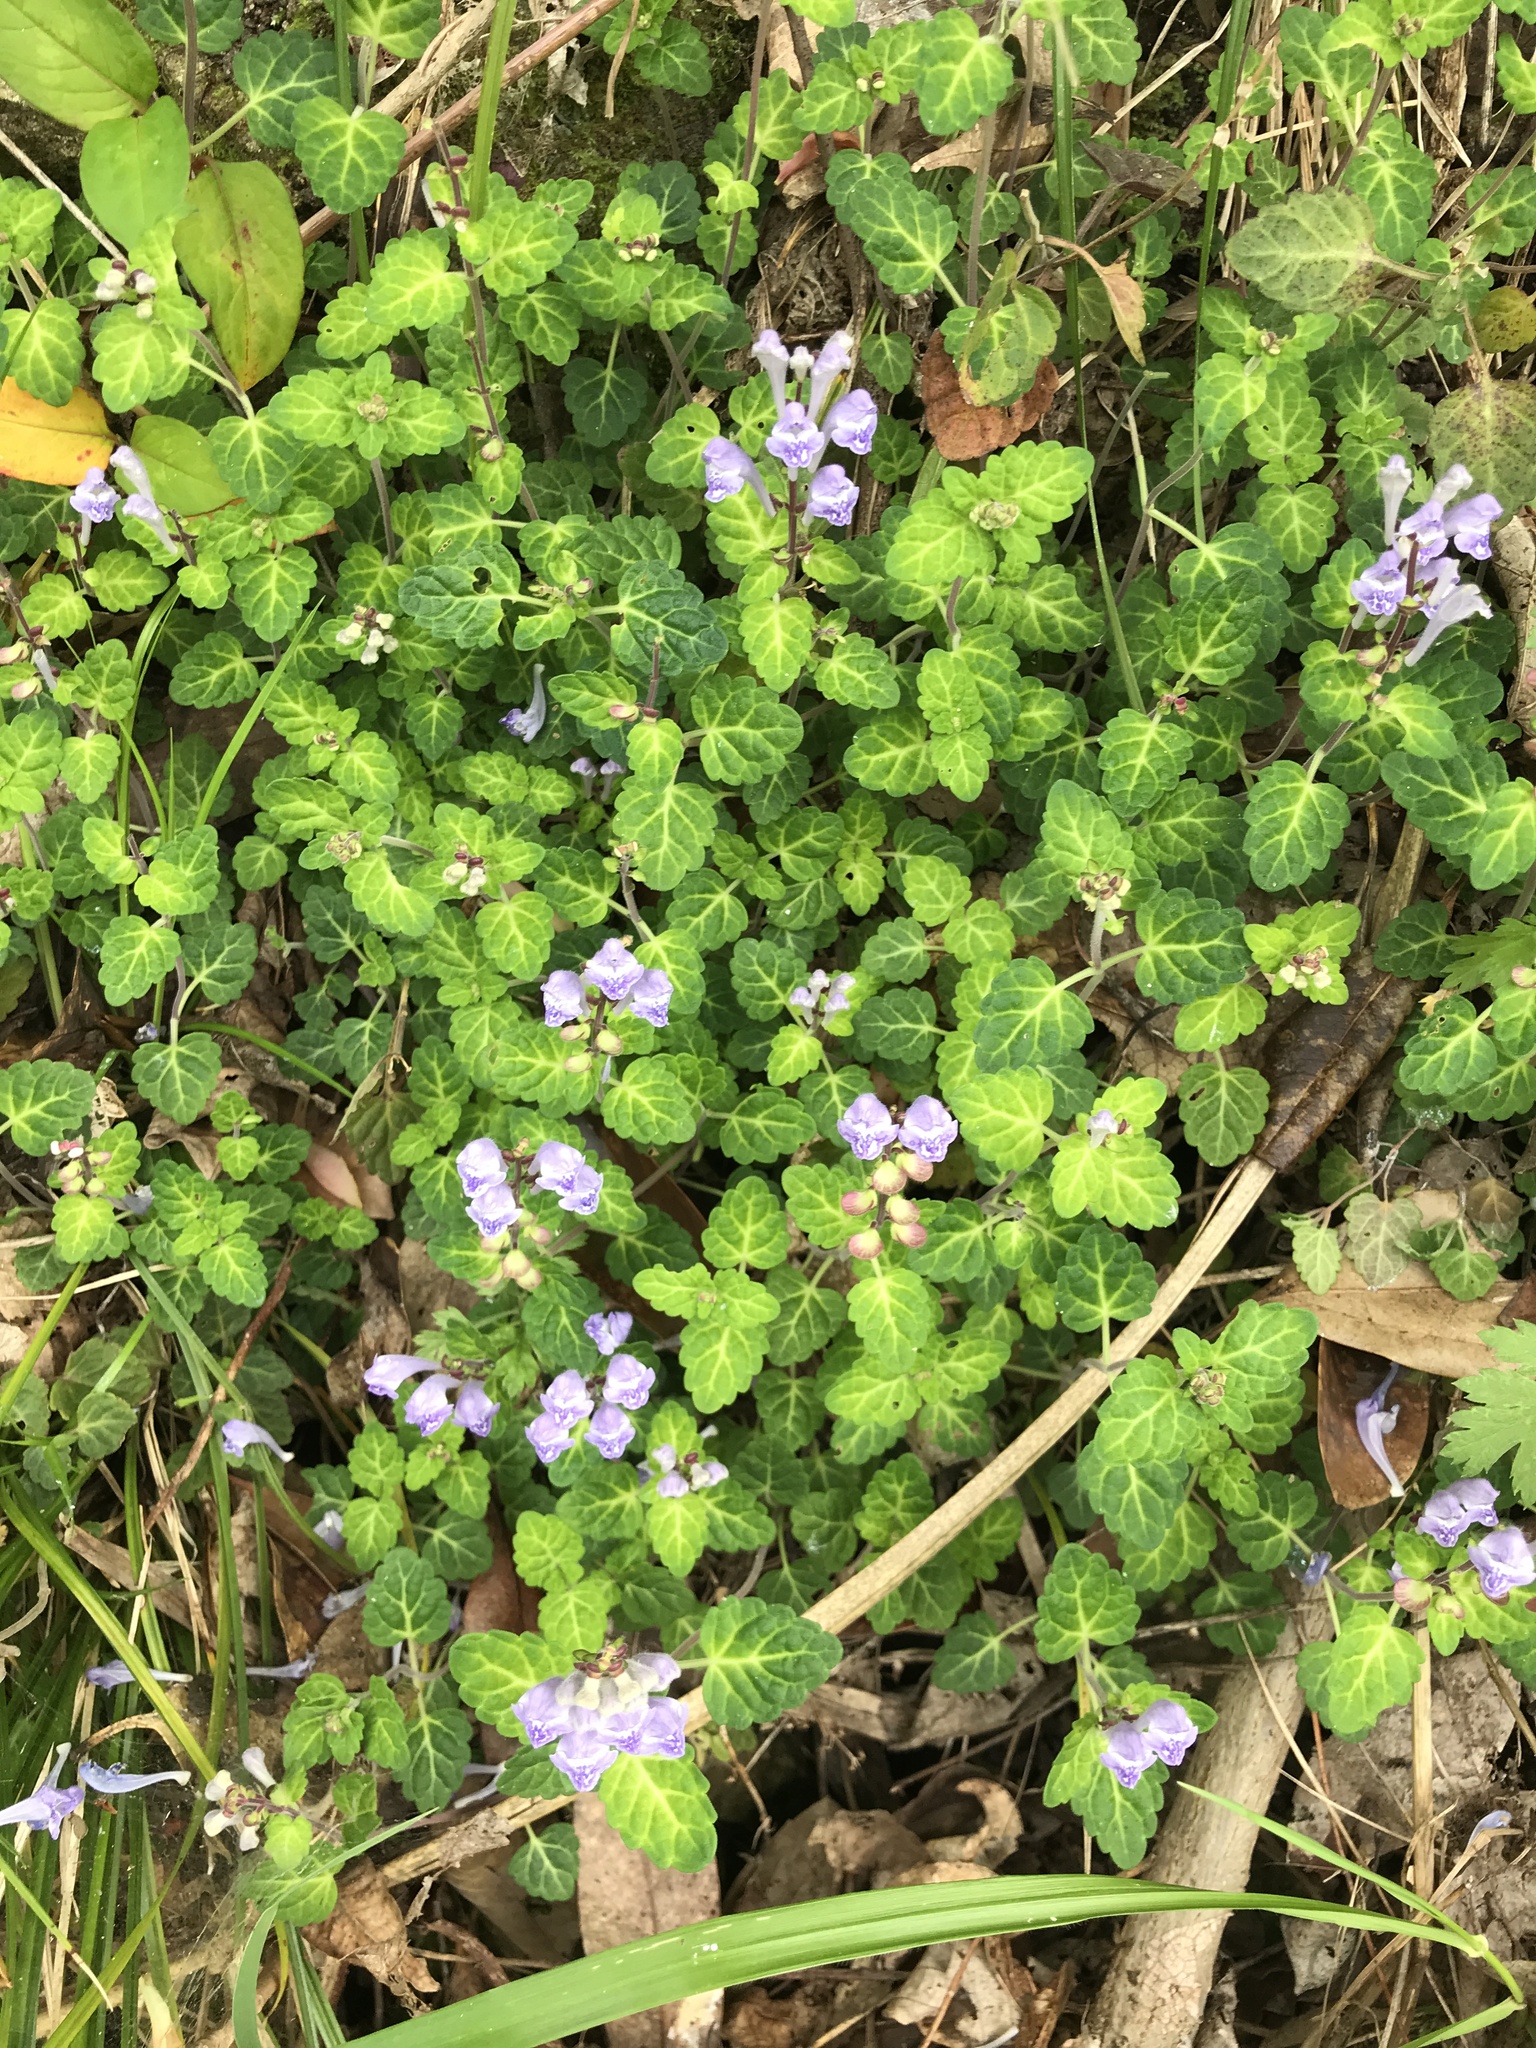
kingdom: Plantae
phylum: Tracheophyta
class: Magnoliopsida
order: Lamiales
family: Lamiaceae
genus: Scutellaria
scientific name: Scutellaria indica
